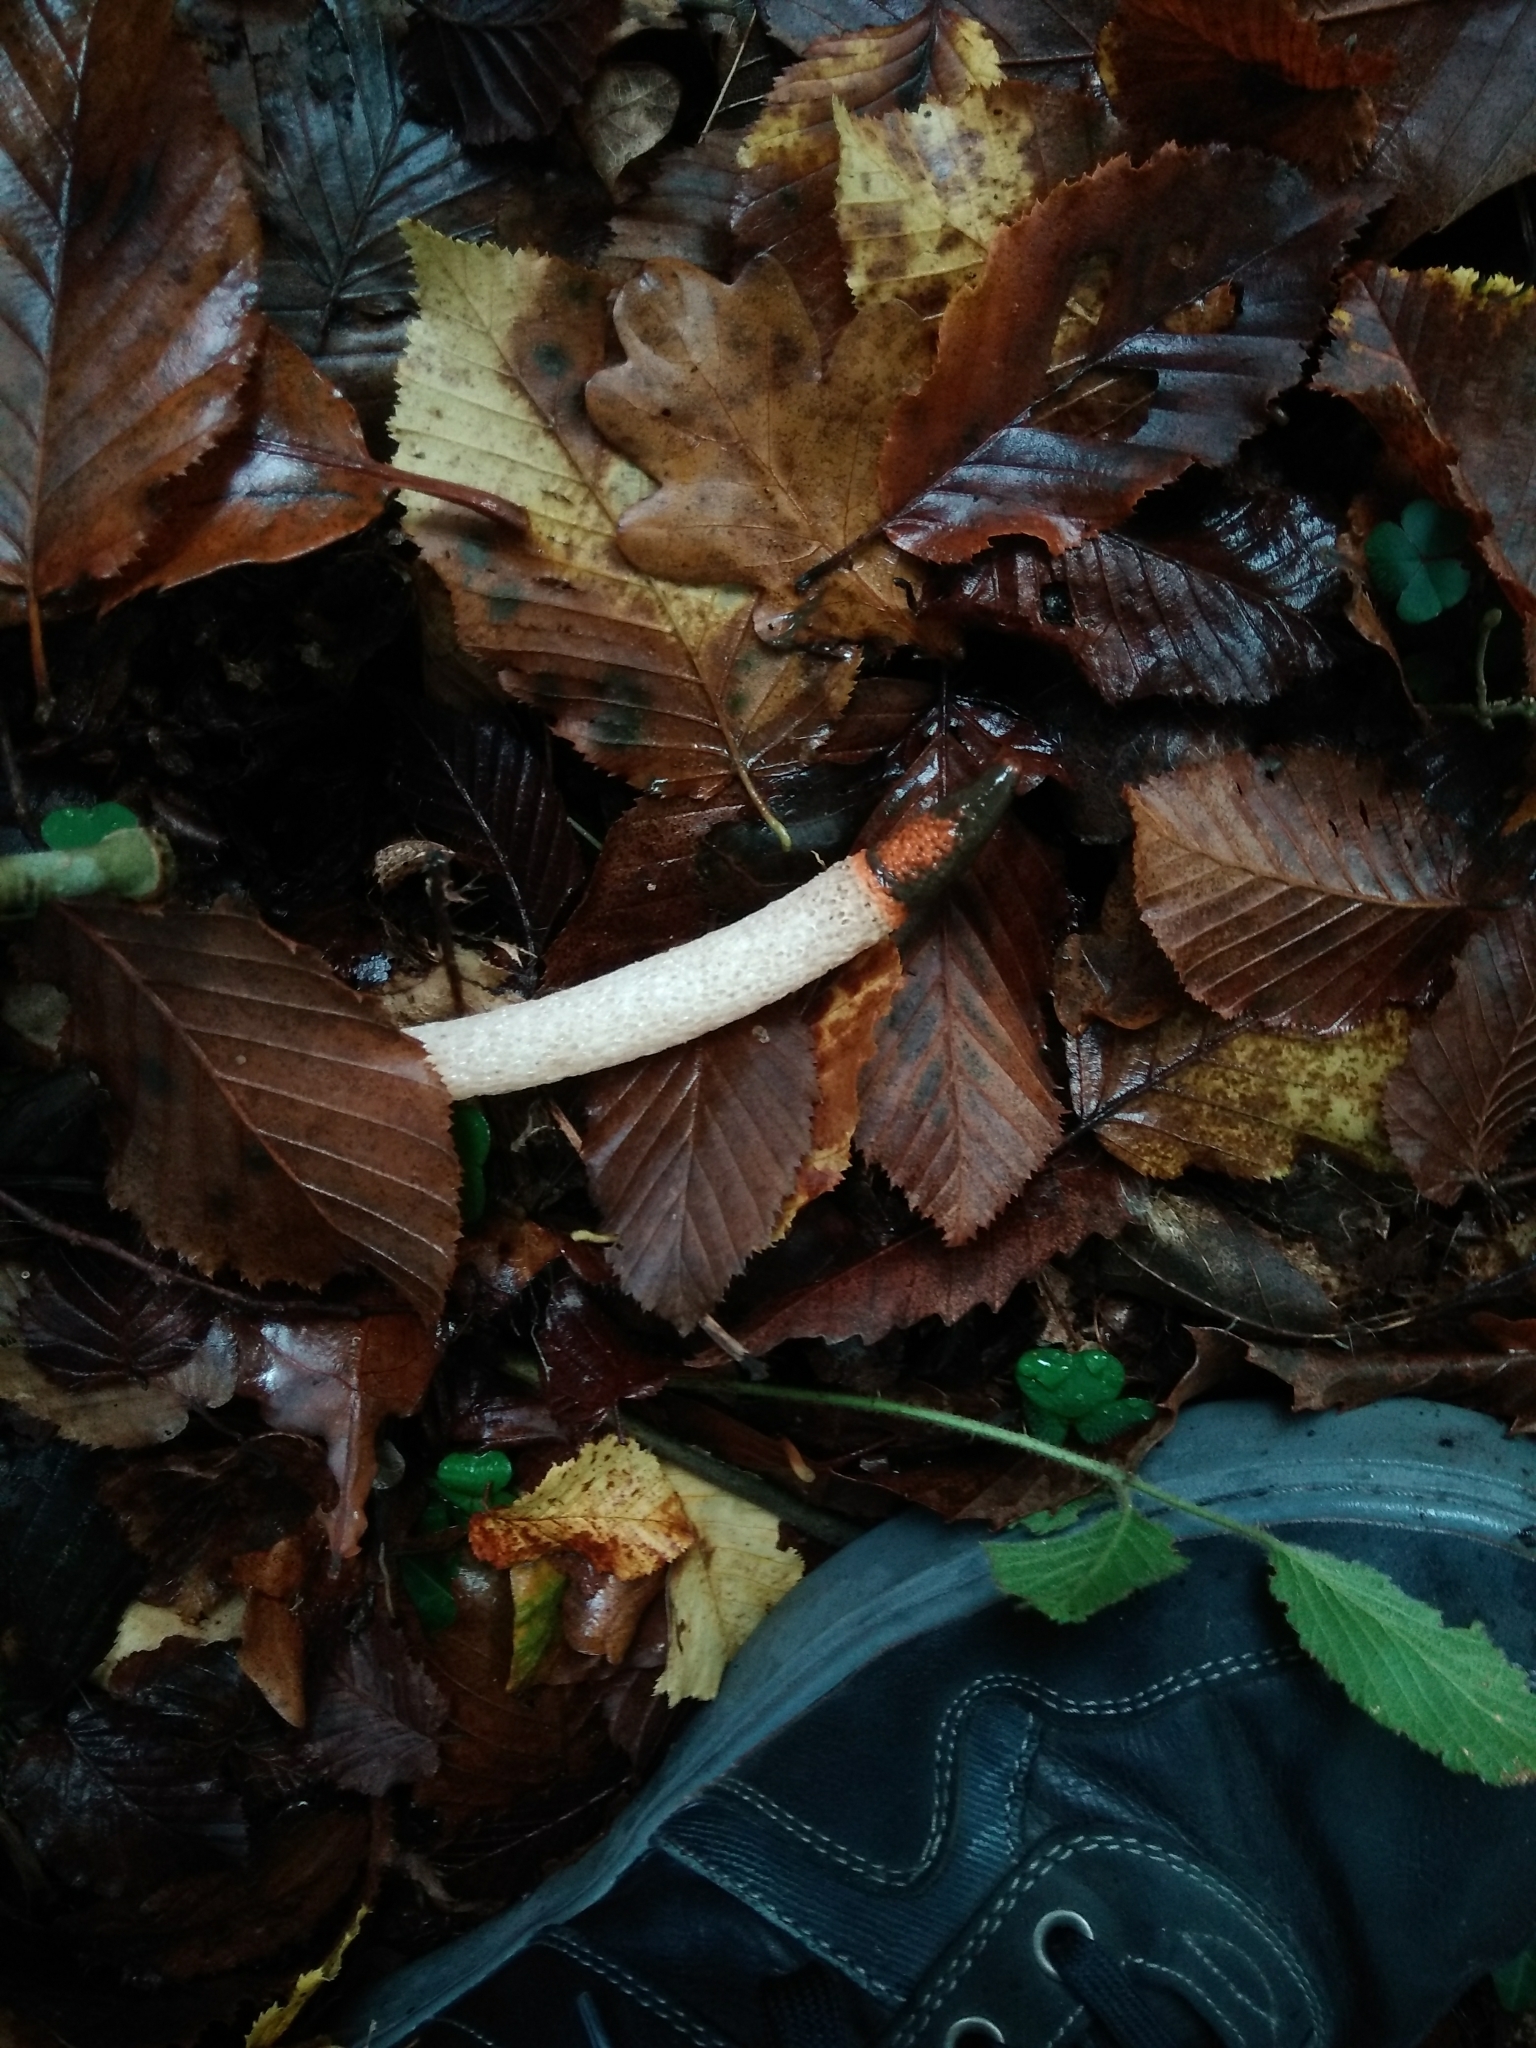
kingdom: Fungi
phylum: Basidiomycota
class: Agaricomycetes
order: Phallales
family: Phallaceae
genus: Mutinus
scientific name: Mutinus caninus
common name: Dog stinkhorn
